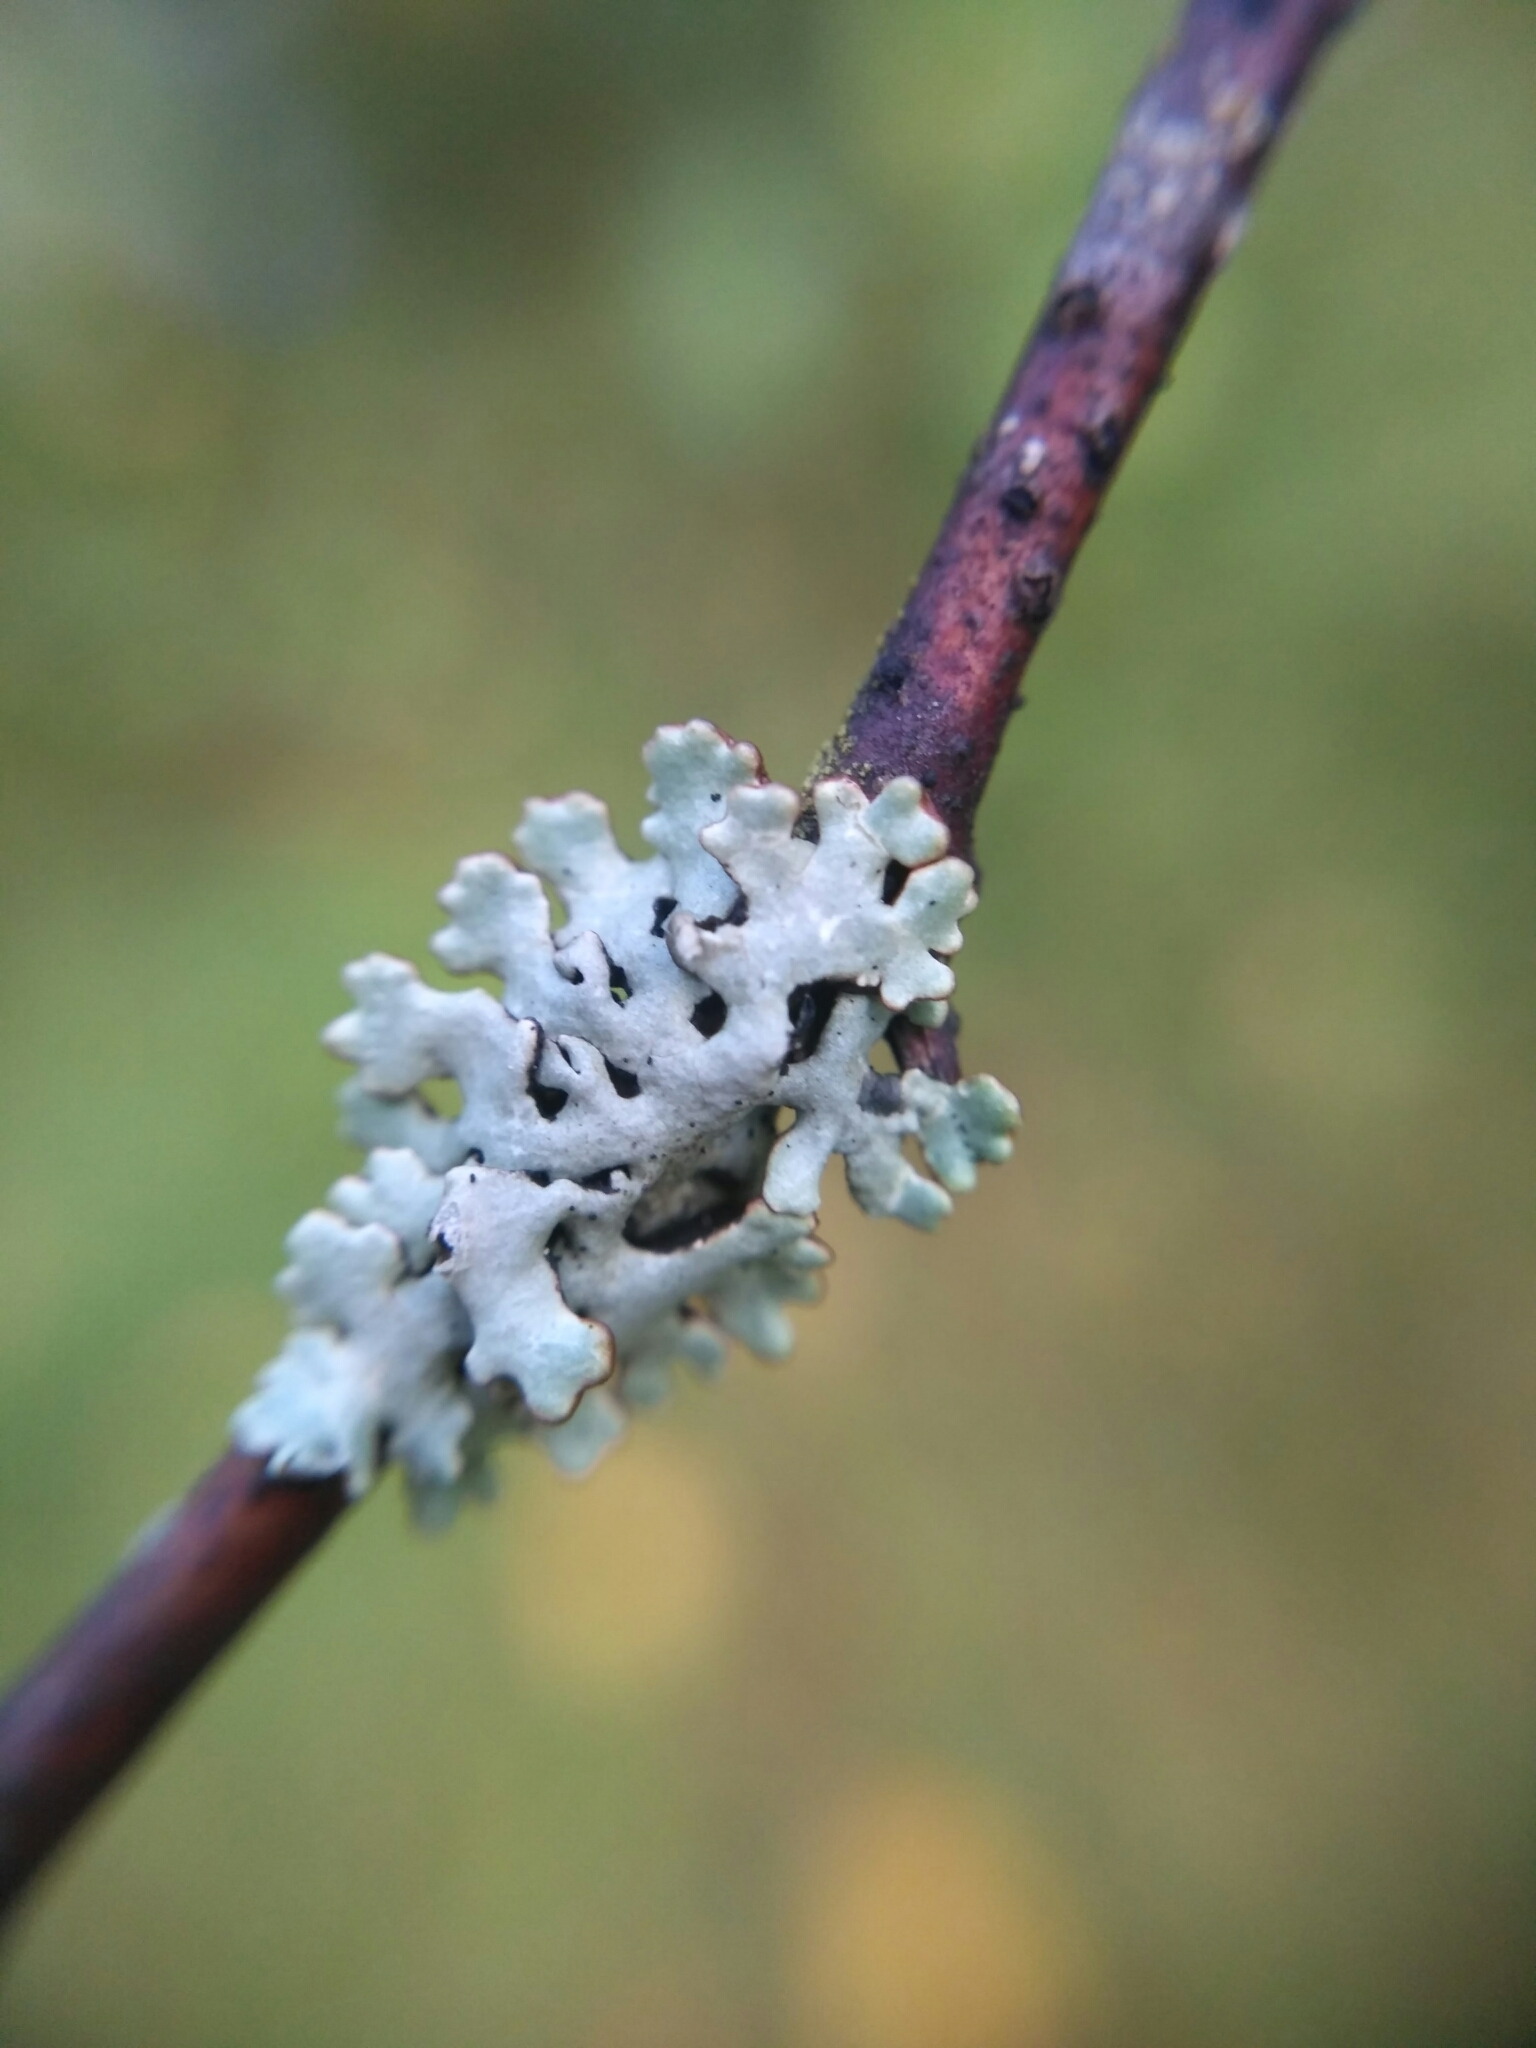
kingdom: Fungi
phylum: Ascomycota
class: Lecanoromycetes
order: Lecanorales
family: Parmeliaceae
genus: Hypogymnia
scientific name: Hypogymnia physodes
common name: Dark crottle
